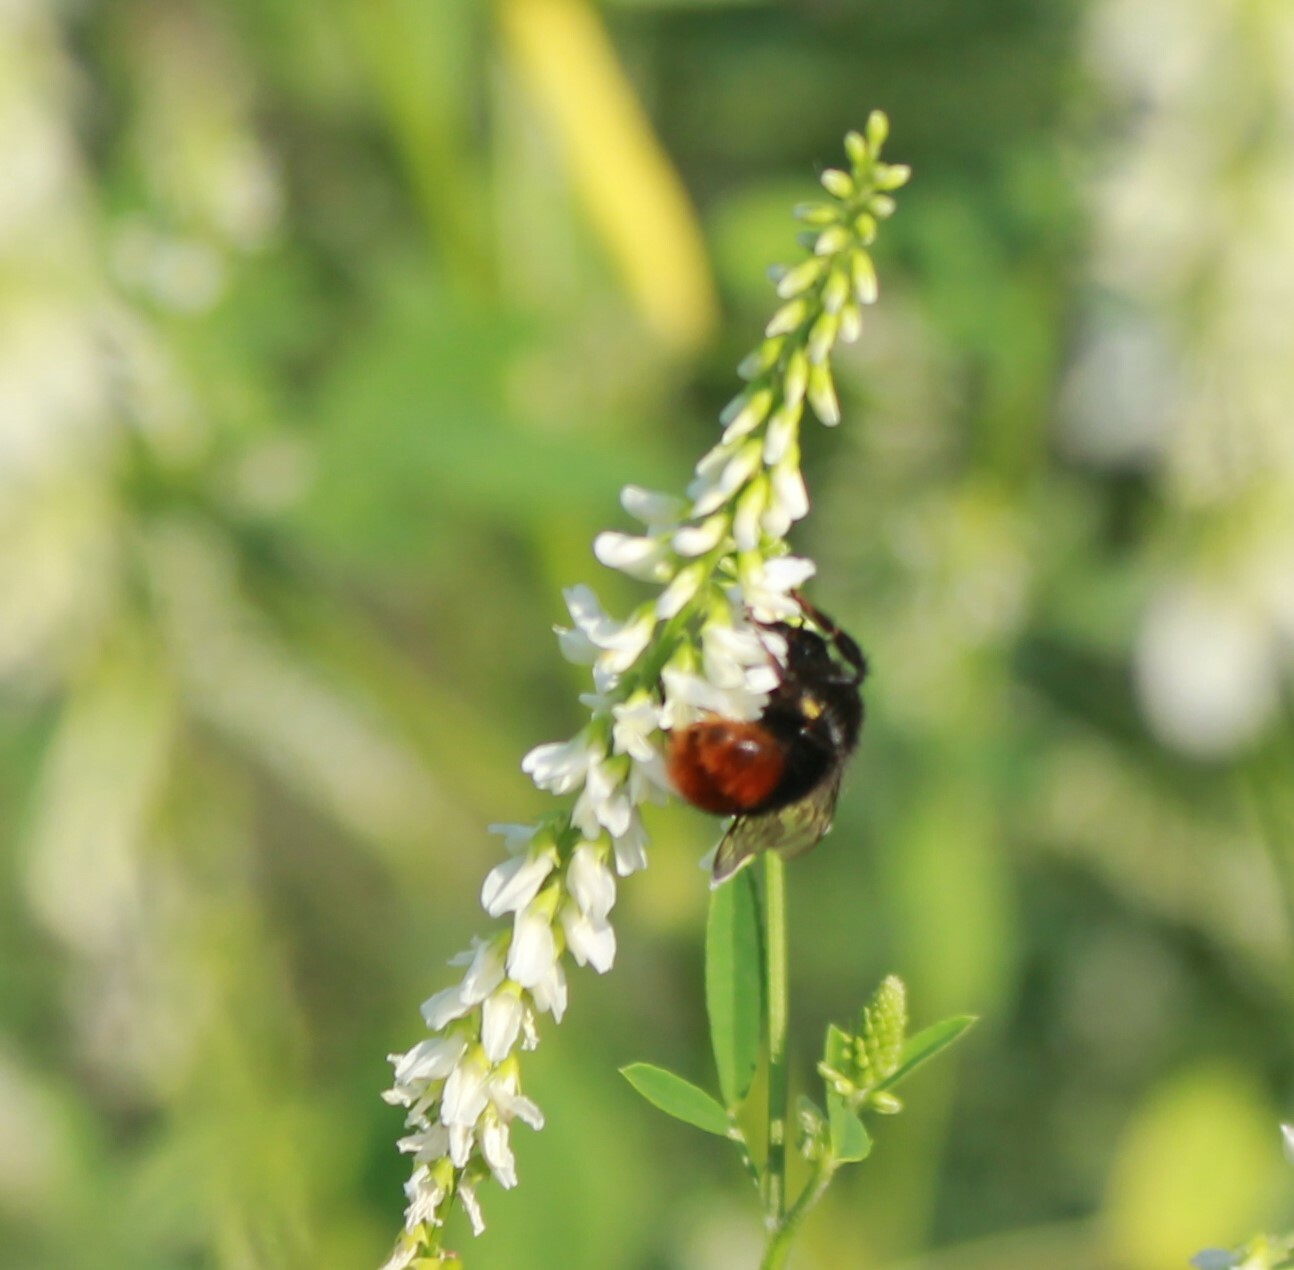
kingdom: Animalia
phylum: Arthropoda
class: Insecta
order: Hymenoptera
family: Apidae
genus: Bombus
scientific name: Bombus
